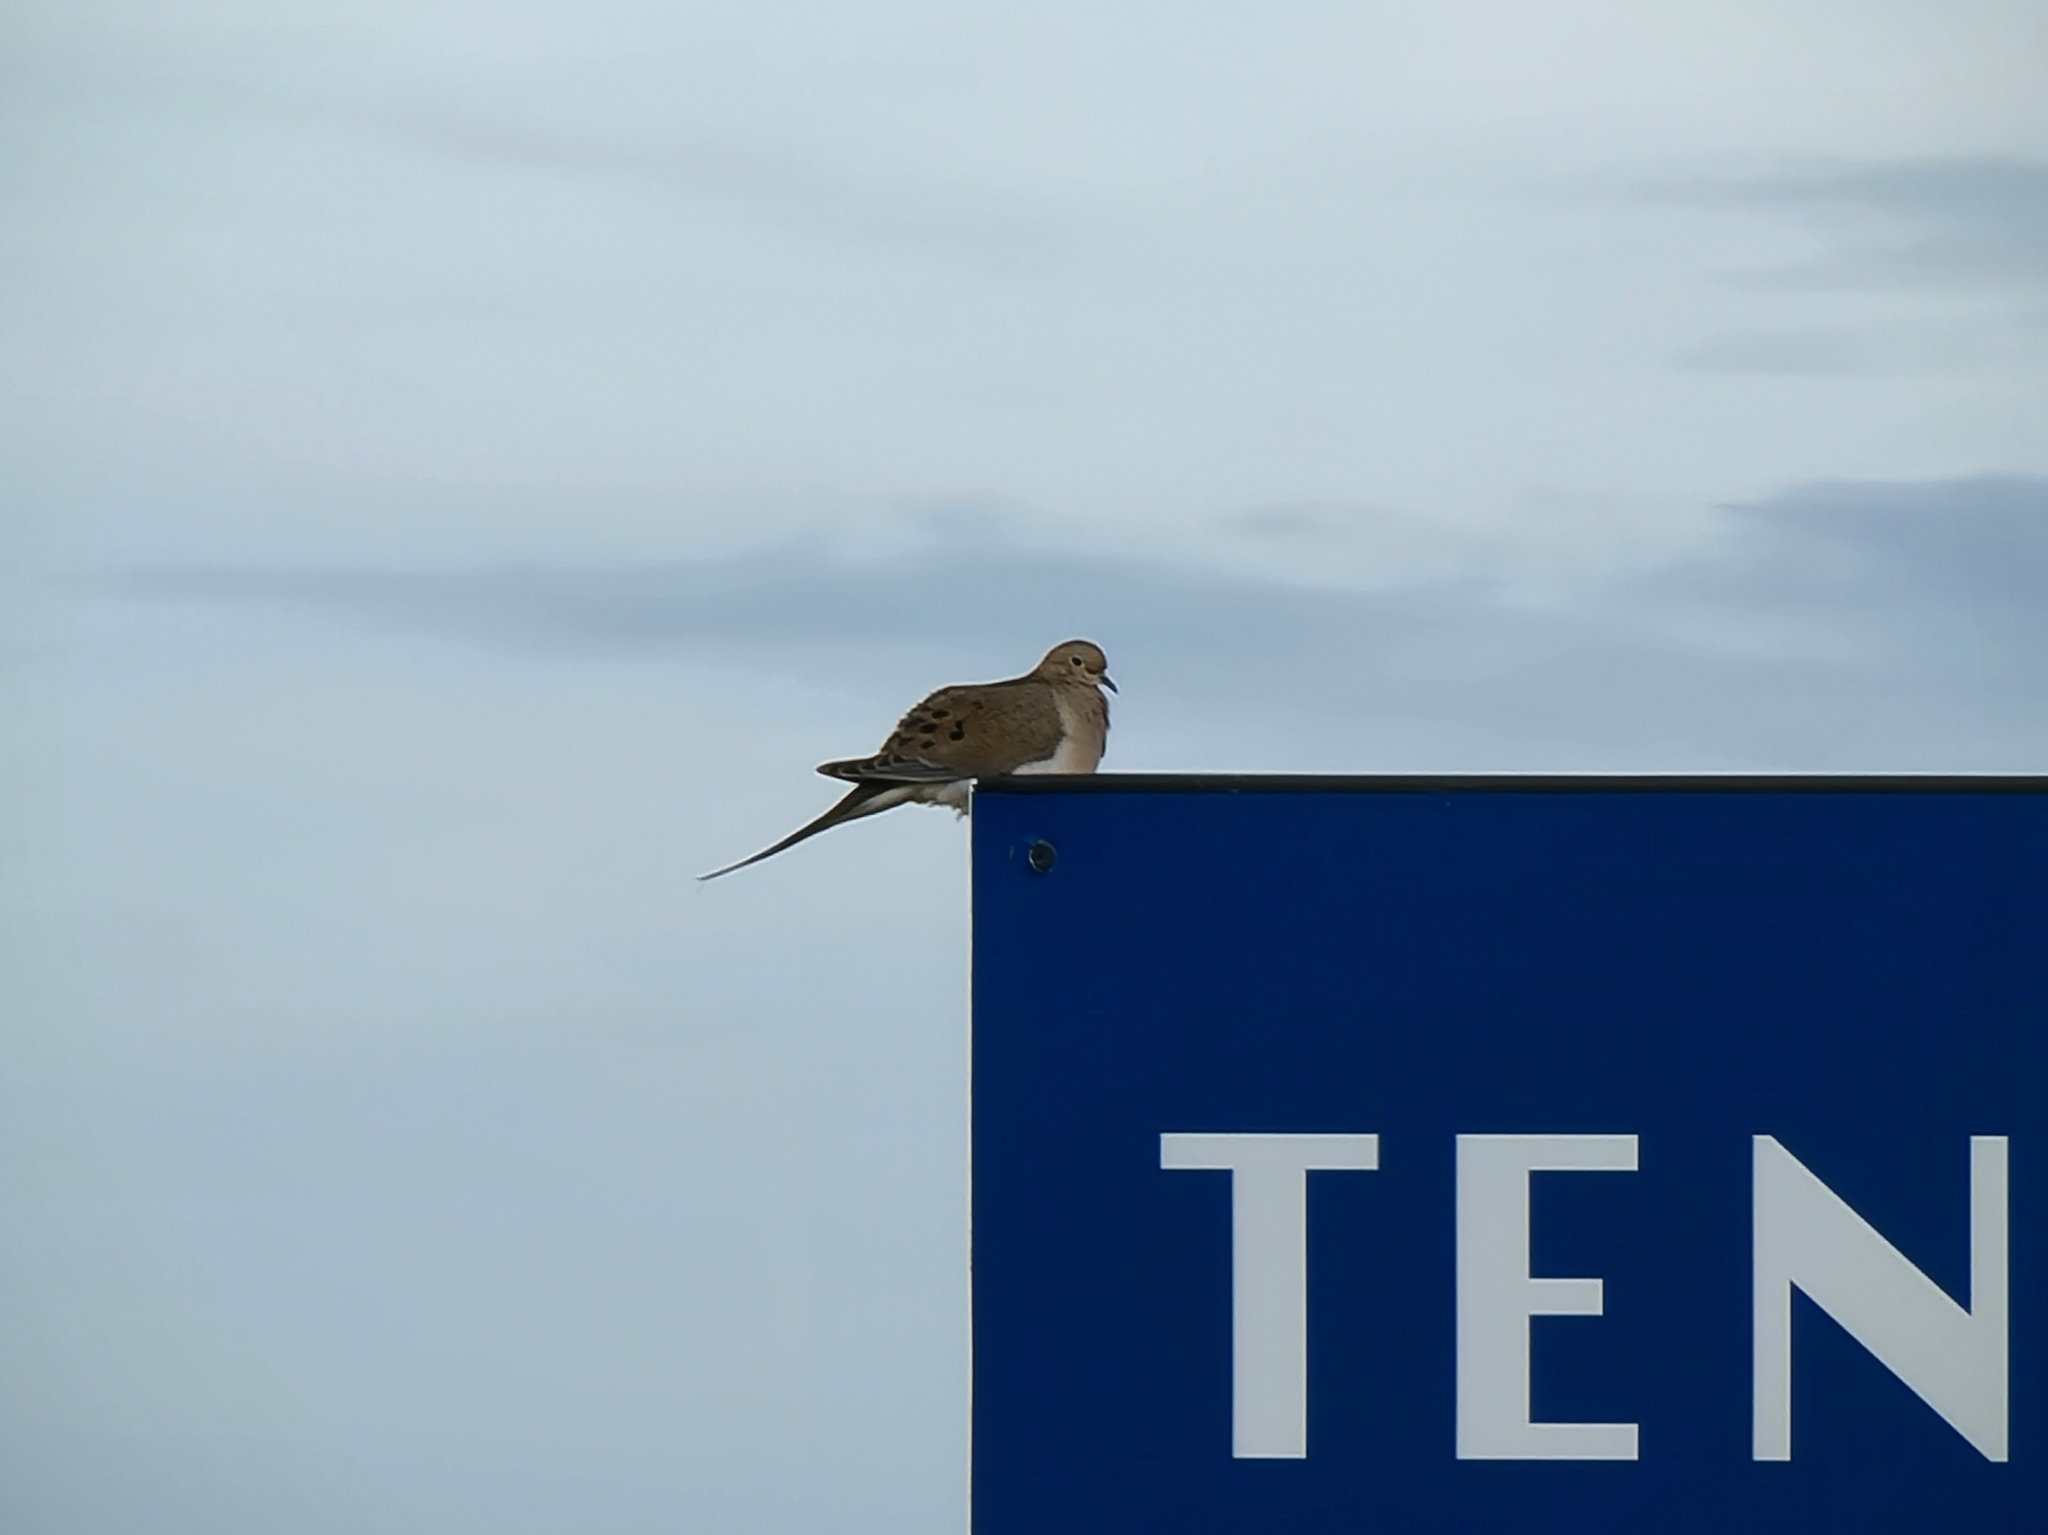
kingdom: Animalia
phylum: Chordata
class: Aves
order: Columbiformes
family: Columbidae
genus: Zenaida
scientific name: Zenaida macroura
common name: Mourning dove
